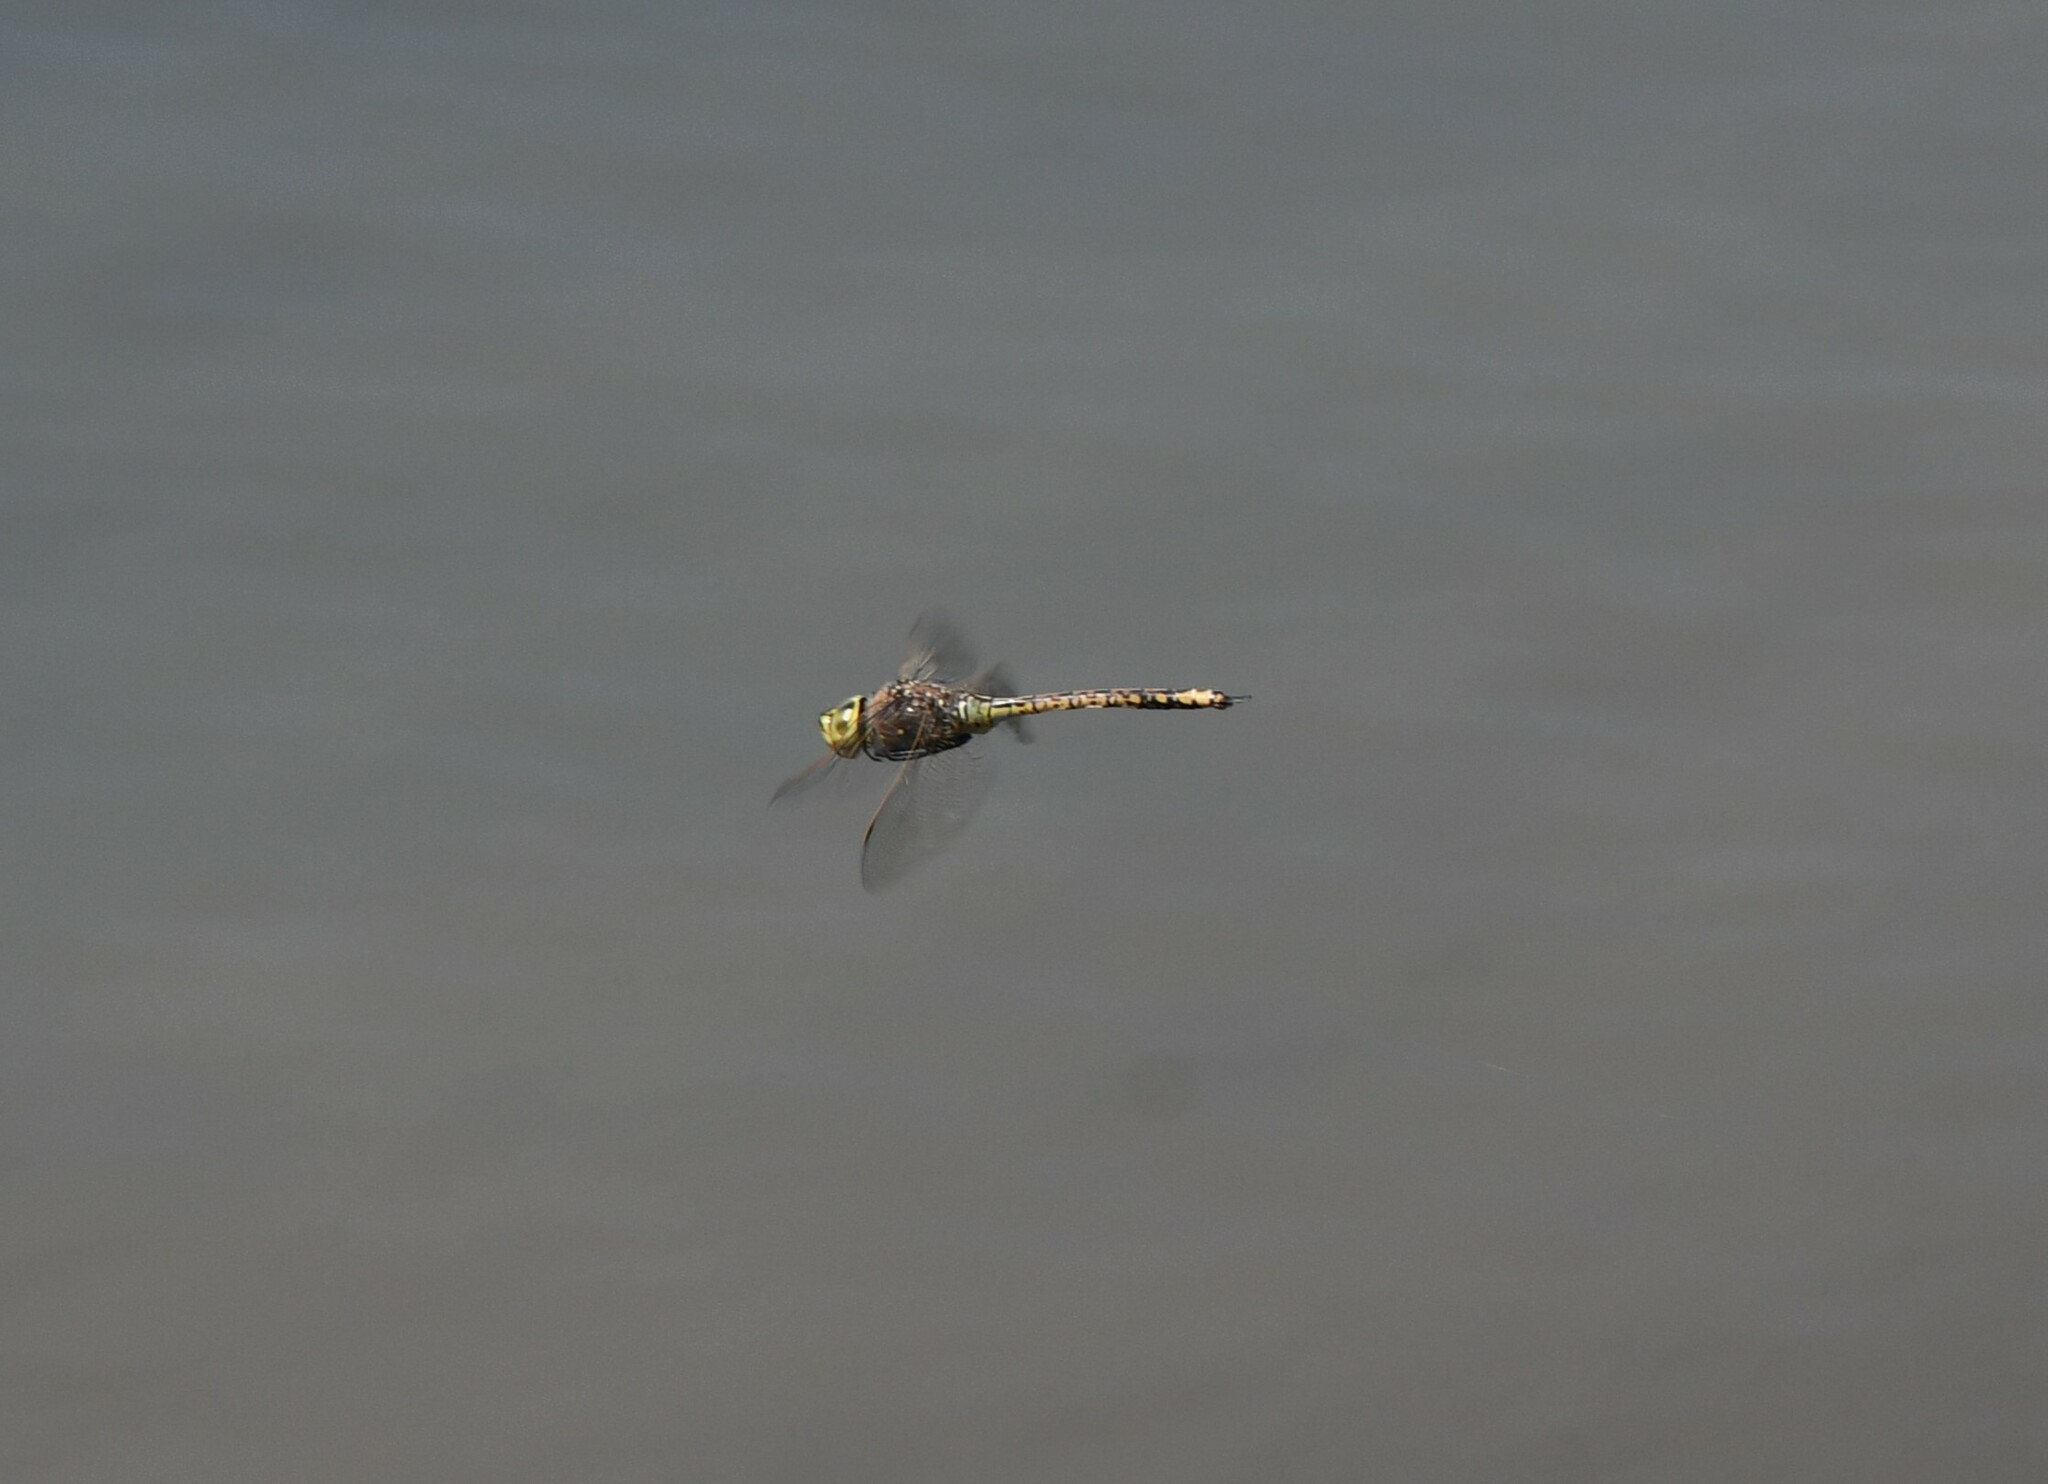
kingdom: Animalia
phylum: Arthropoda
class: Insecta
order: Odonata
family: Aeshnidae
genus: Anax
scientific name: Anax papuensis
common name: Australian emperor
